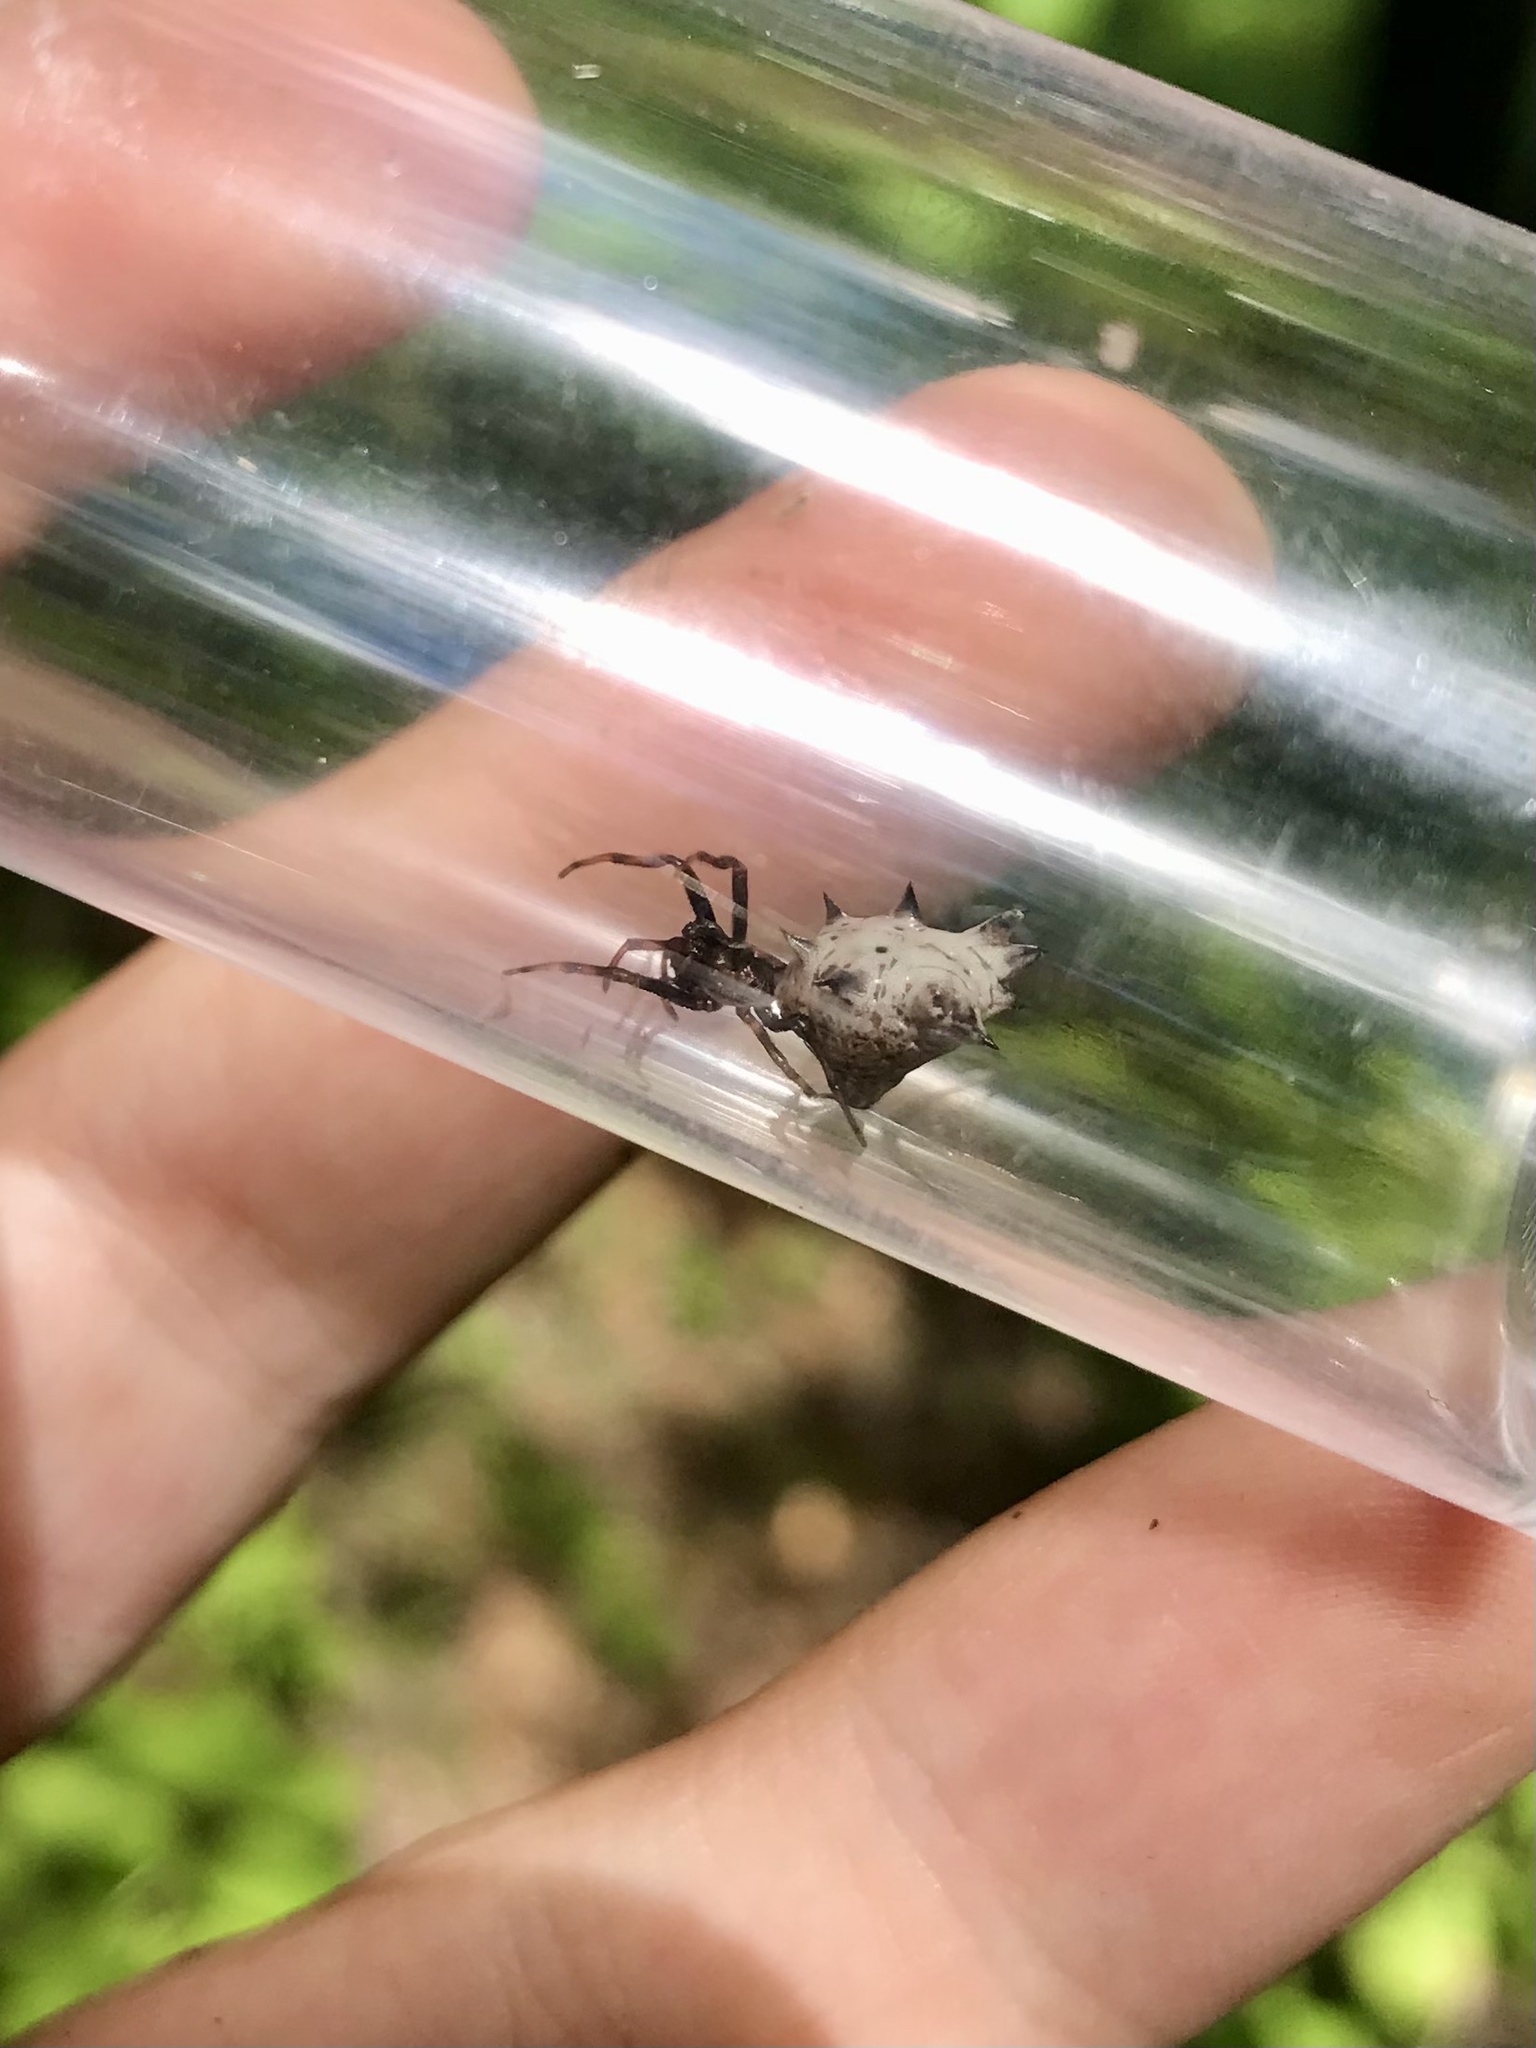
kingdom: Animalia
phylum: Arthropoda
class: Arachnida
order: Araneae
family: Araneidae
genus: Micrathena
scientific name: Micrathena gracilis
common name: Orb weavers
